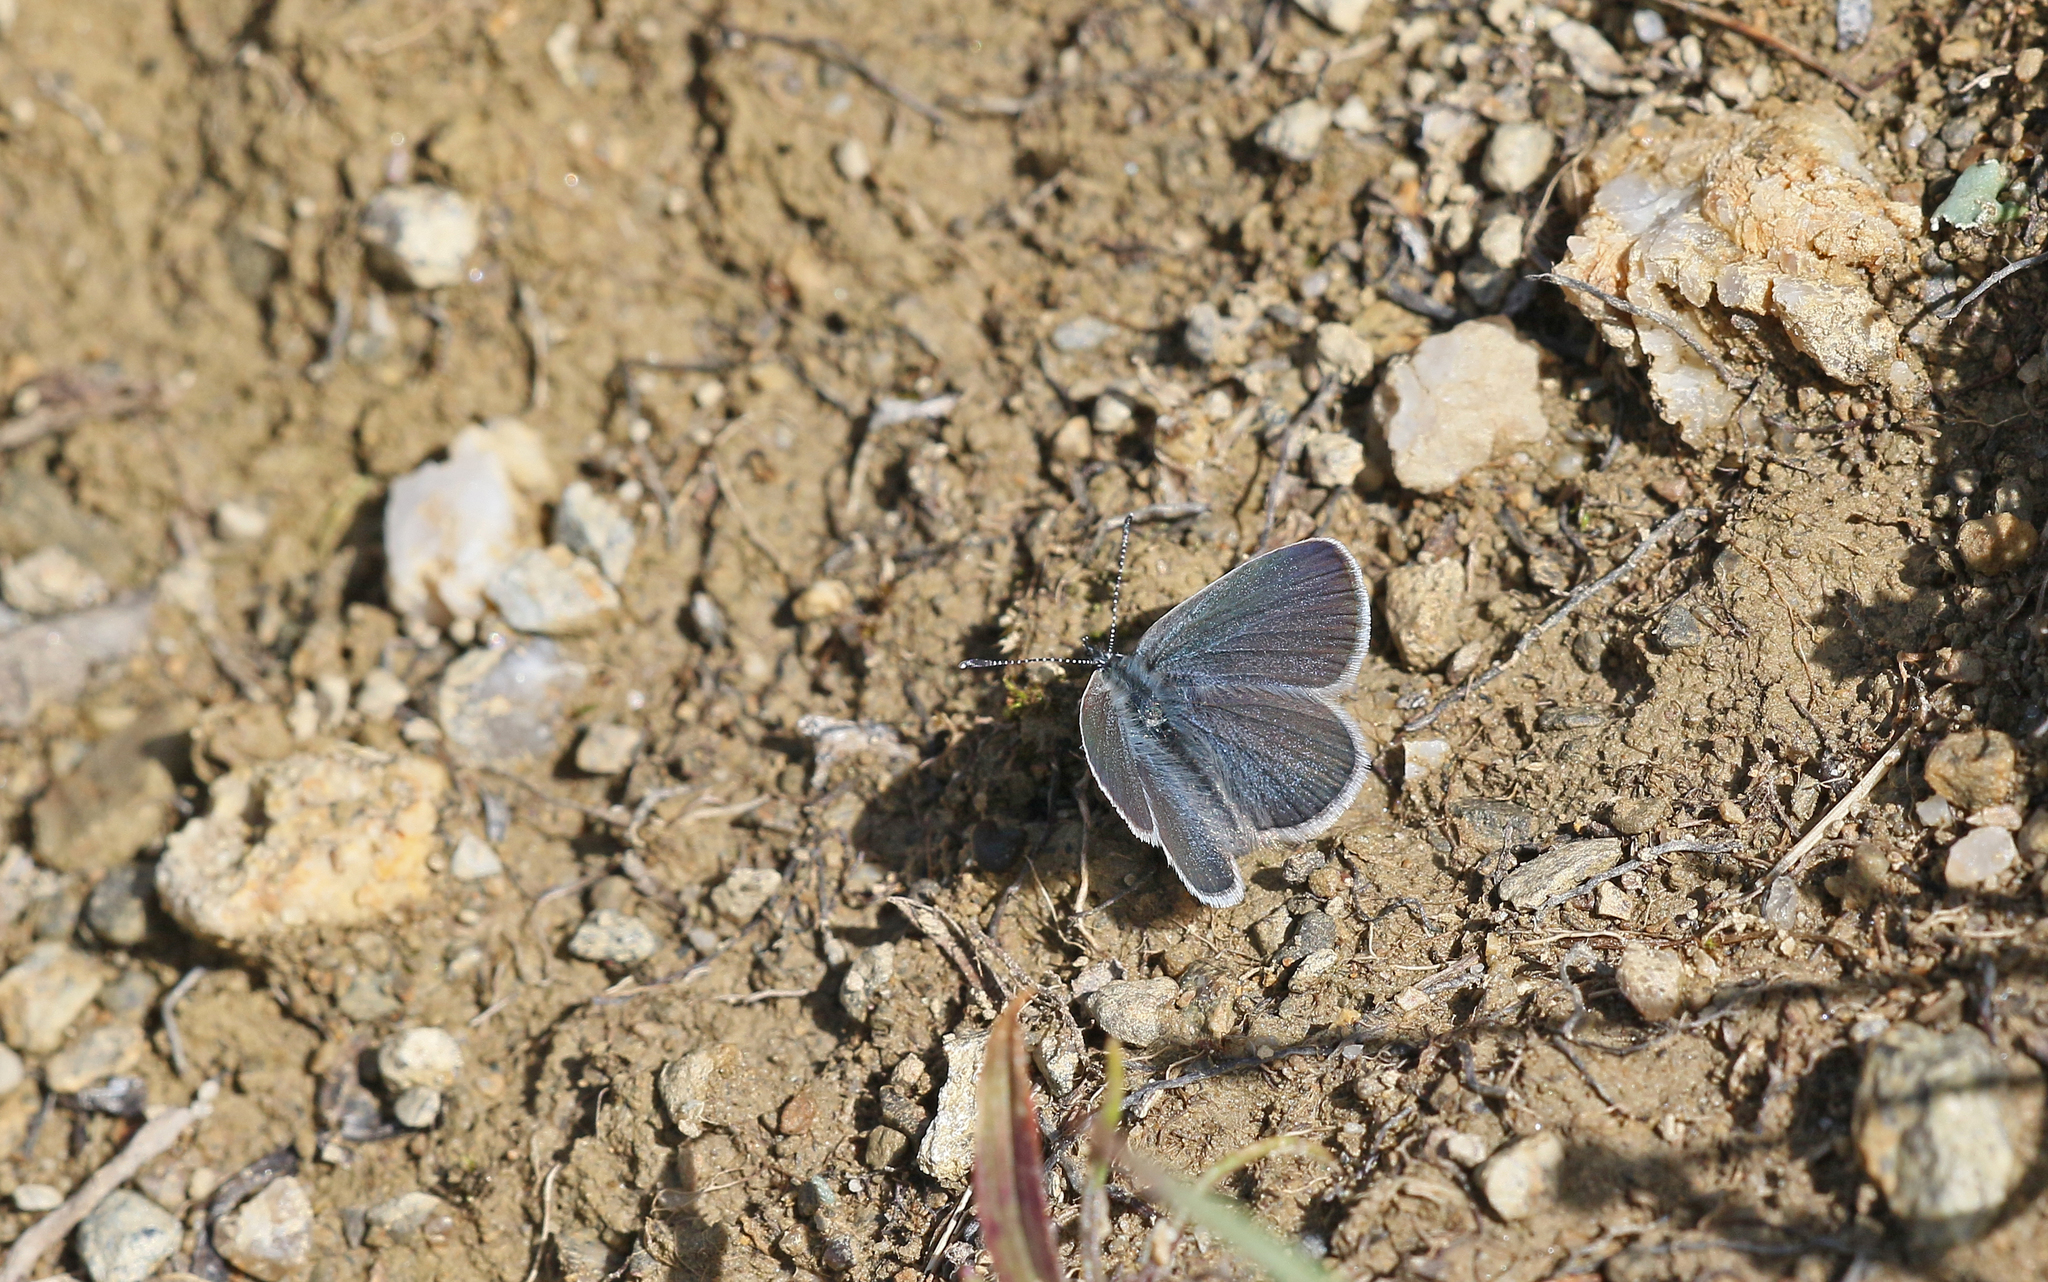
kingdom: Animalia
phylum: Arthropoda
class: Insecta
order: Lepidoptera
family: Lycaenidae
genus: Cupido
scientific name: Cupido minimus
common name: Small blue
